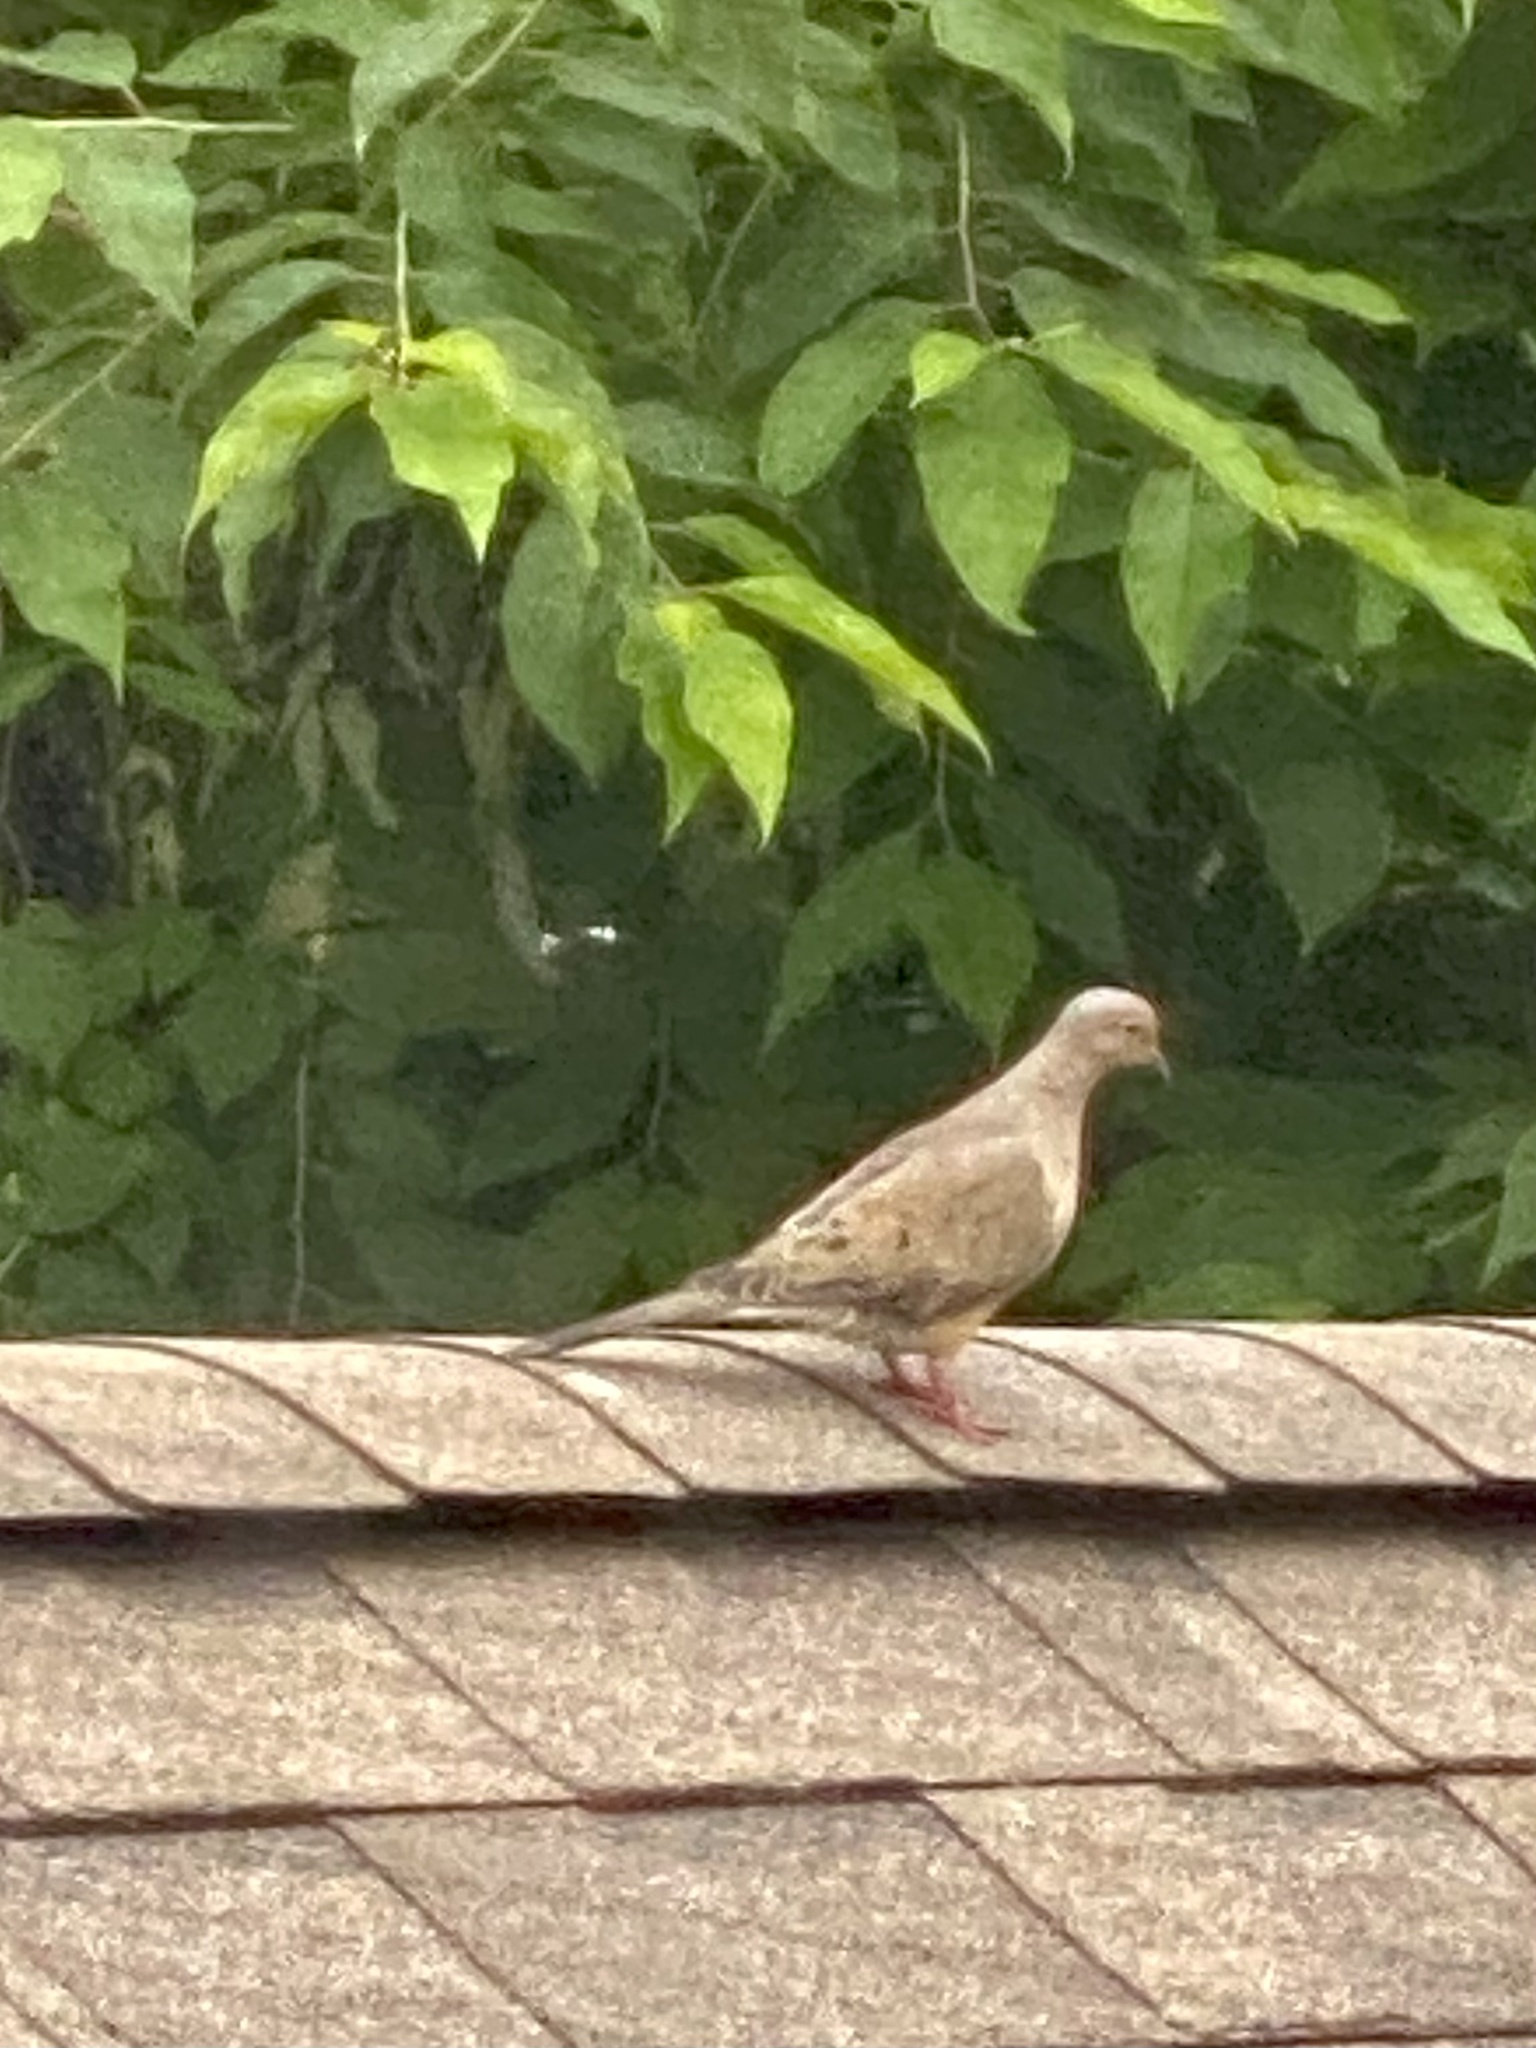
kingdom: Animalia
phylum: Chordata
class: Aves
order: Columbiformes
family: Columbidae
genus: Zenaida
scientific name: Zenaida macroura
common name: Mourning dove
